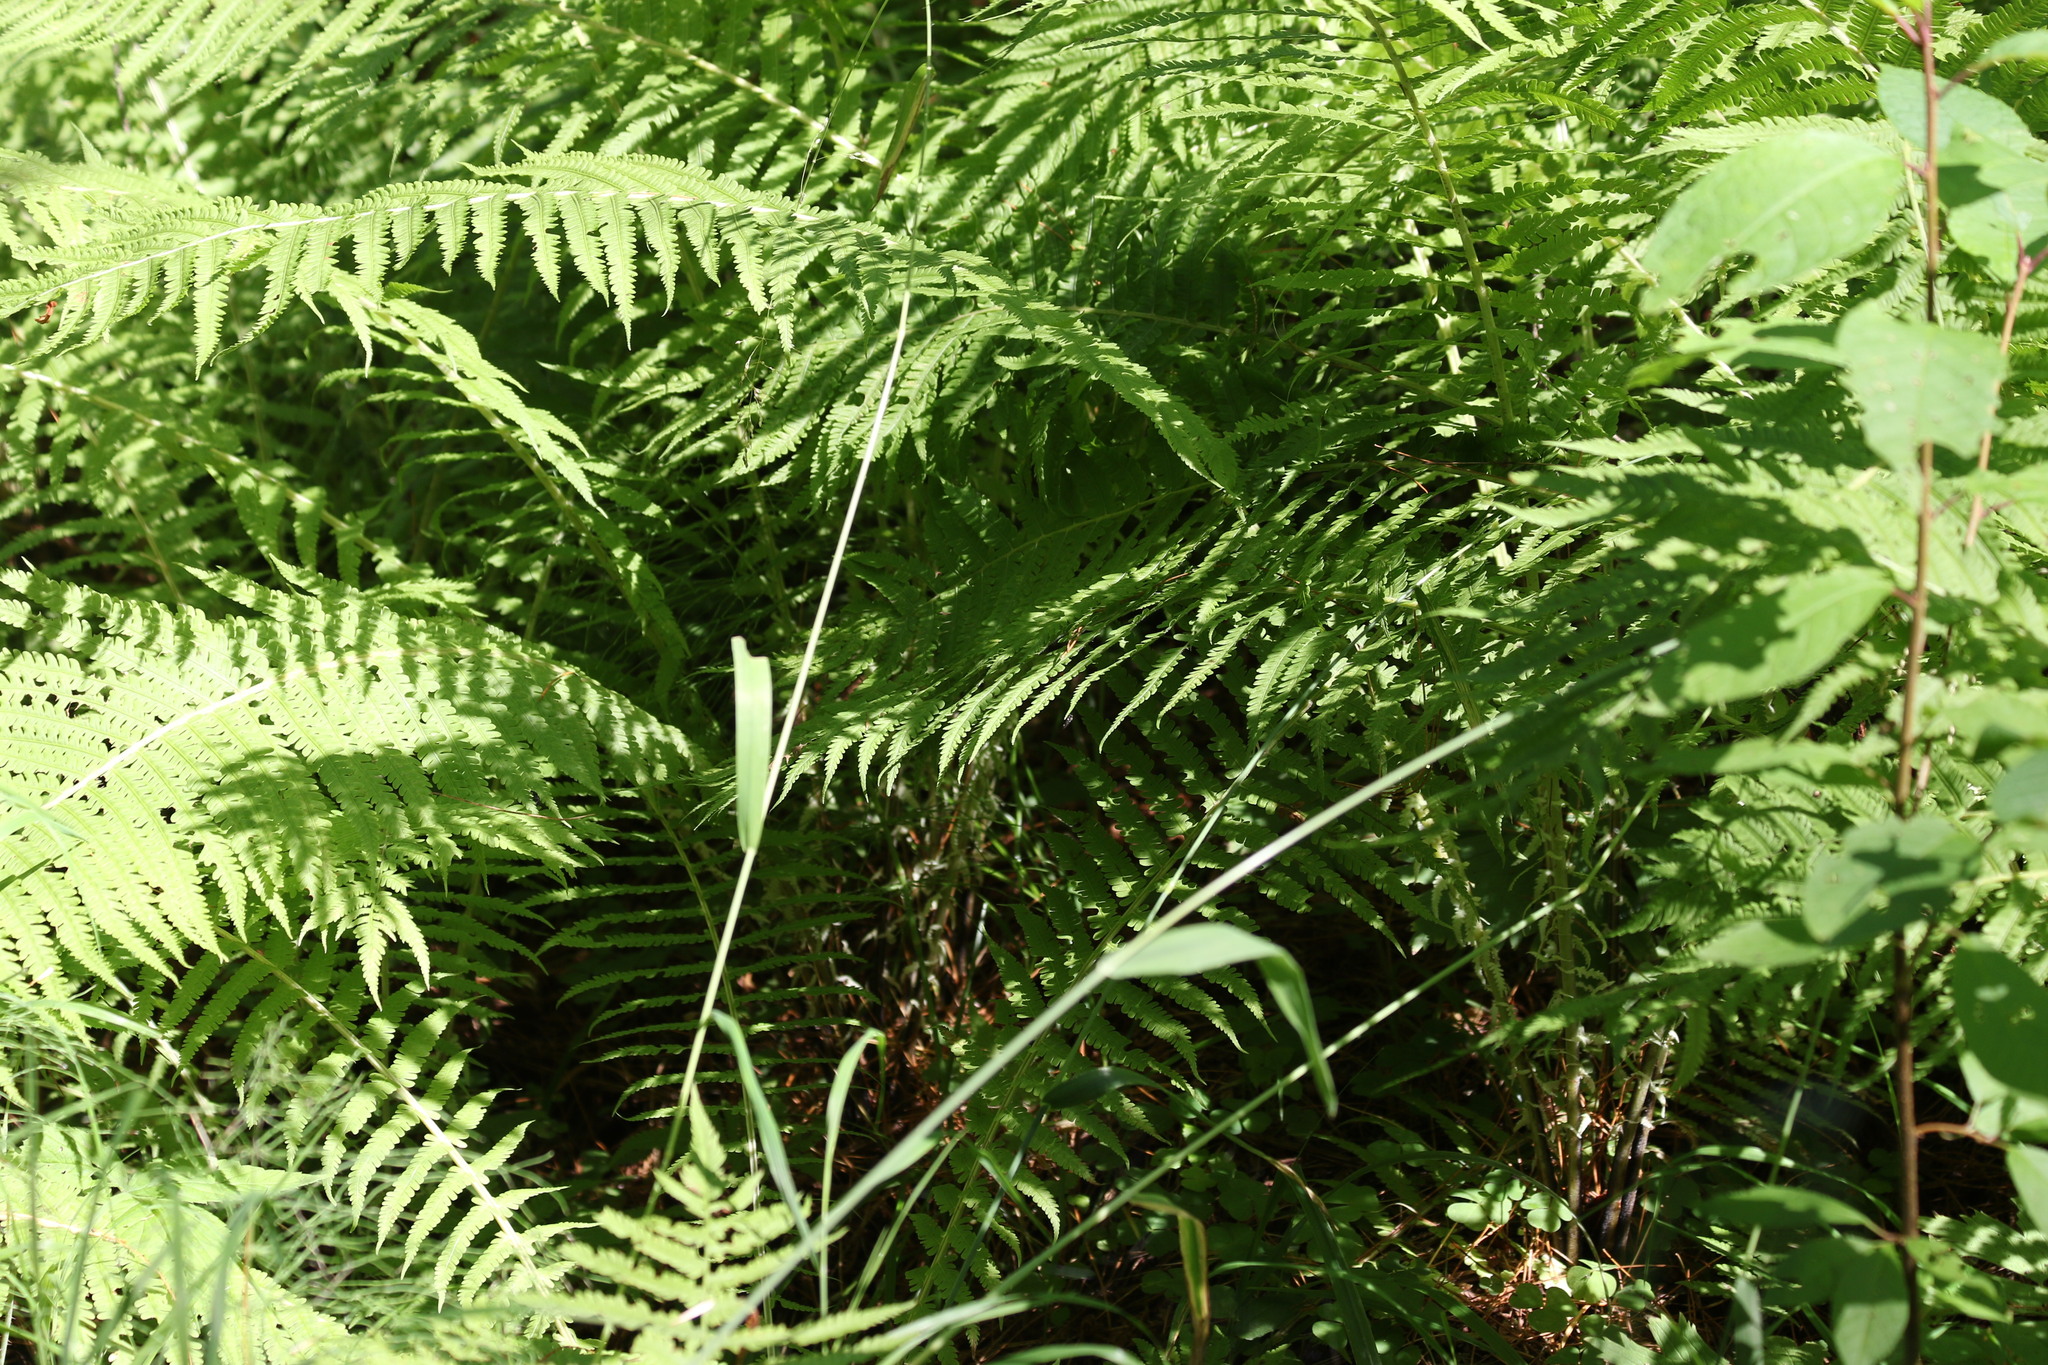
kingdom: Plantae
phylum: Tracheophyta
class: Polypodiopsida
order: Polypodiales
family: Onocleaceae
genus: Matteuccia
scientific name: Matteuccia struthiopteris
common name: Ostrich fern
